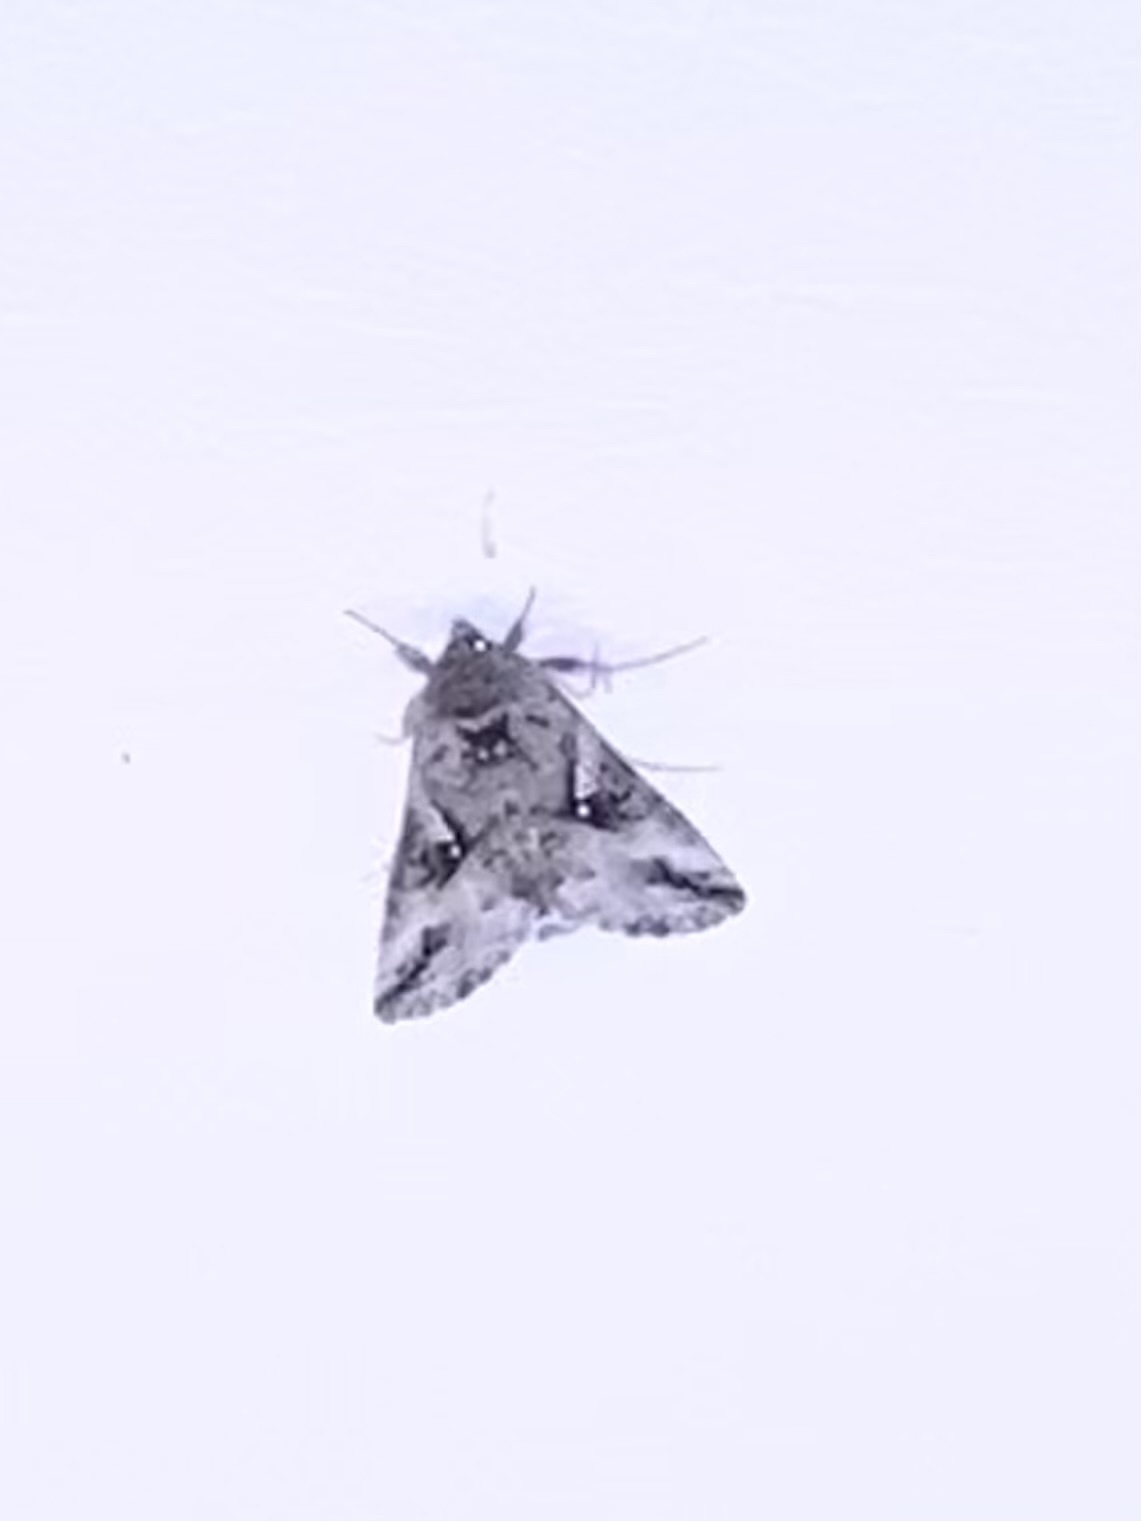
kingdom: Animalia
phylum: Arthropoda
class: Insecta
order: Lepidoptera
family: Noctuidae
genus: Autographa
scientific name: Autographa californica
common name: Alfalfa looper
